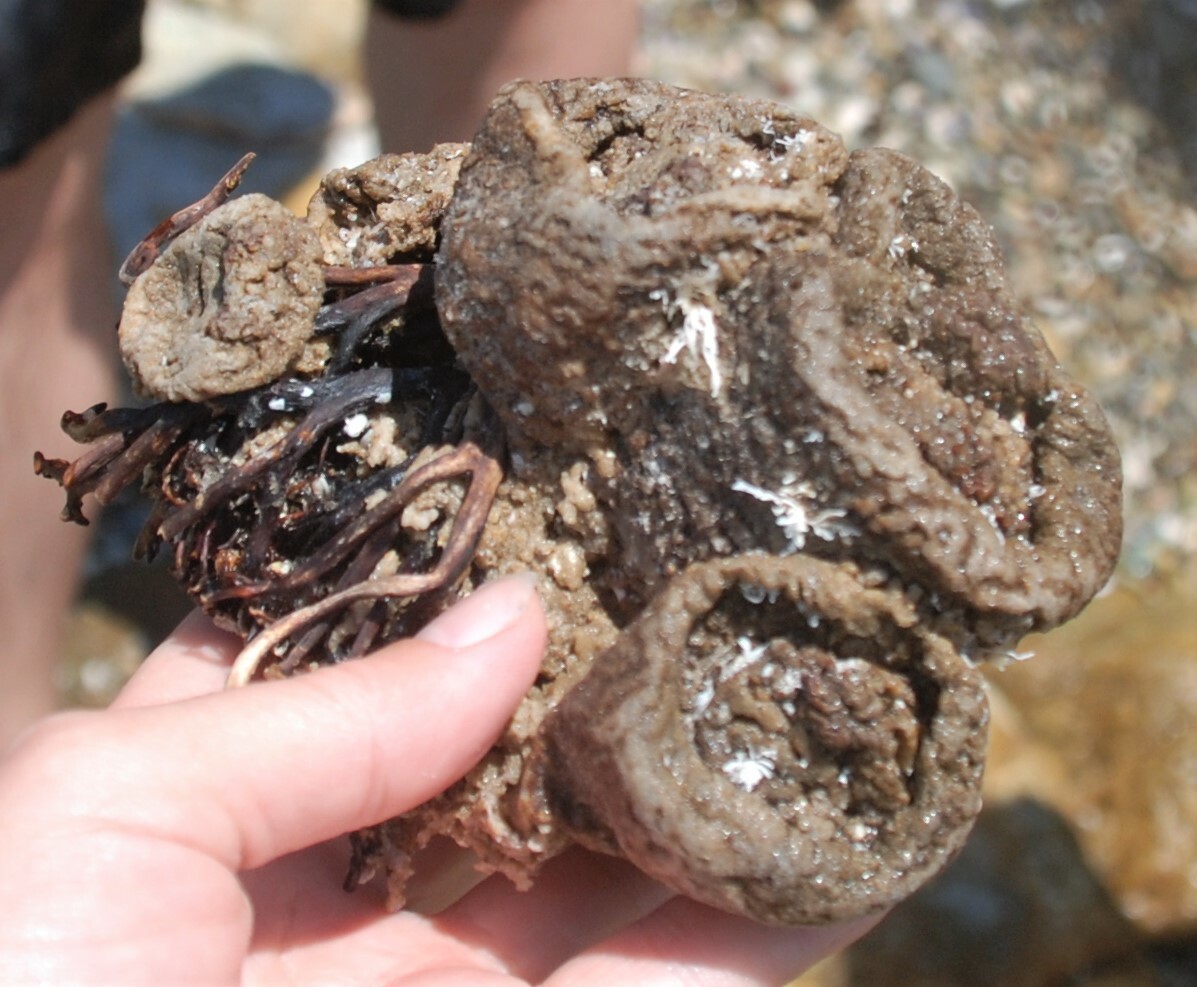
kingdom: Animalia
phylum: Chordata
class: Ascidiacea
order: Stolidobranchia
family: Pyuridae
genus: Pyura
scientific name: Pyura praeputialis
